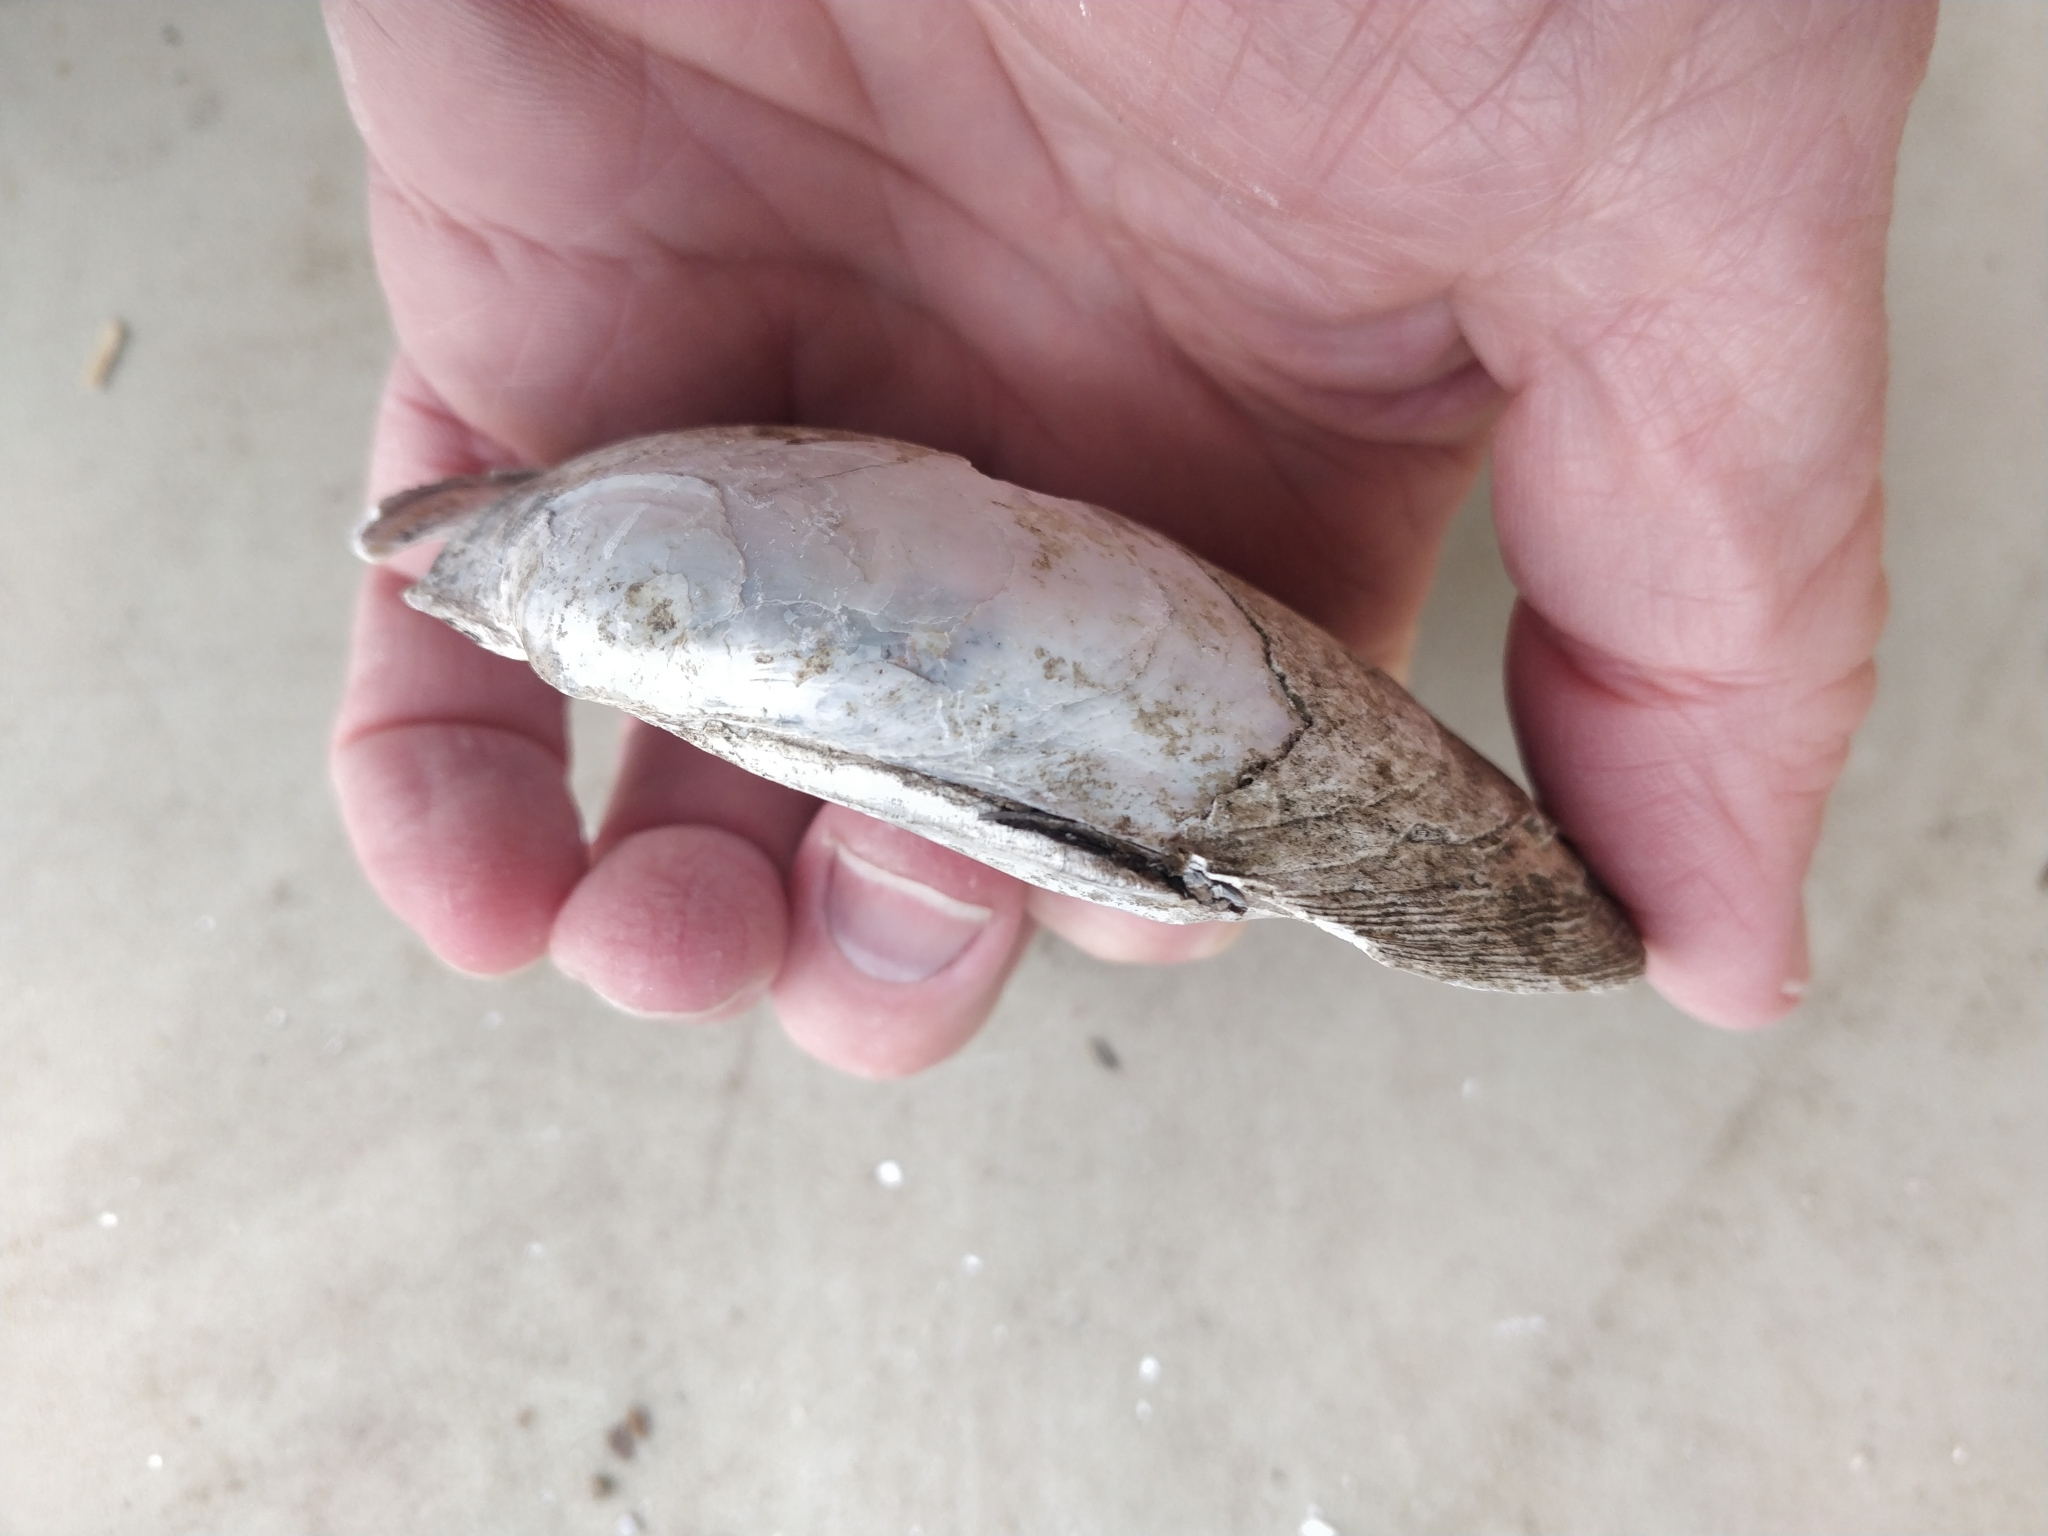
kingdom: Animalia
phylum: Mollusca
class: Bivalvia
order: Unionida
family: Unionidae
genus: Lampsilis
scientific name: Lampsilis cardium
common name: Plain pocketbook
